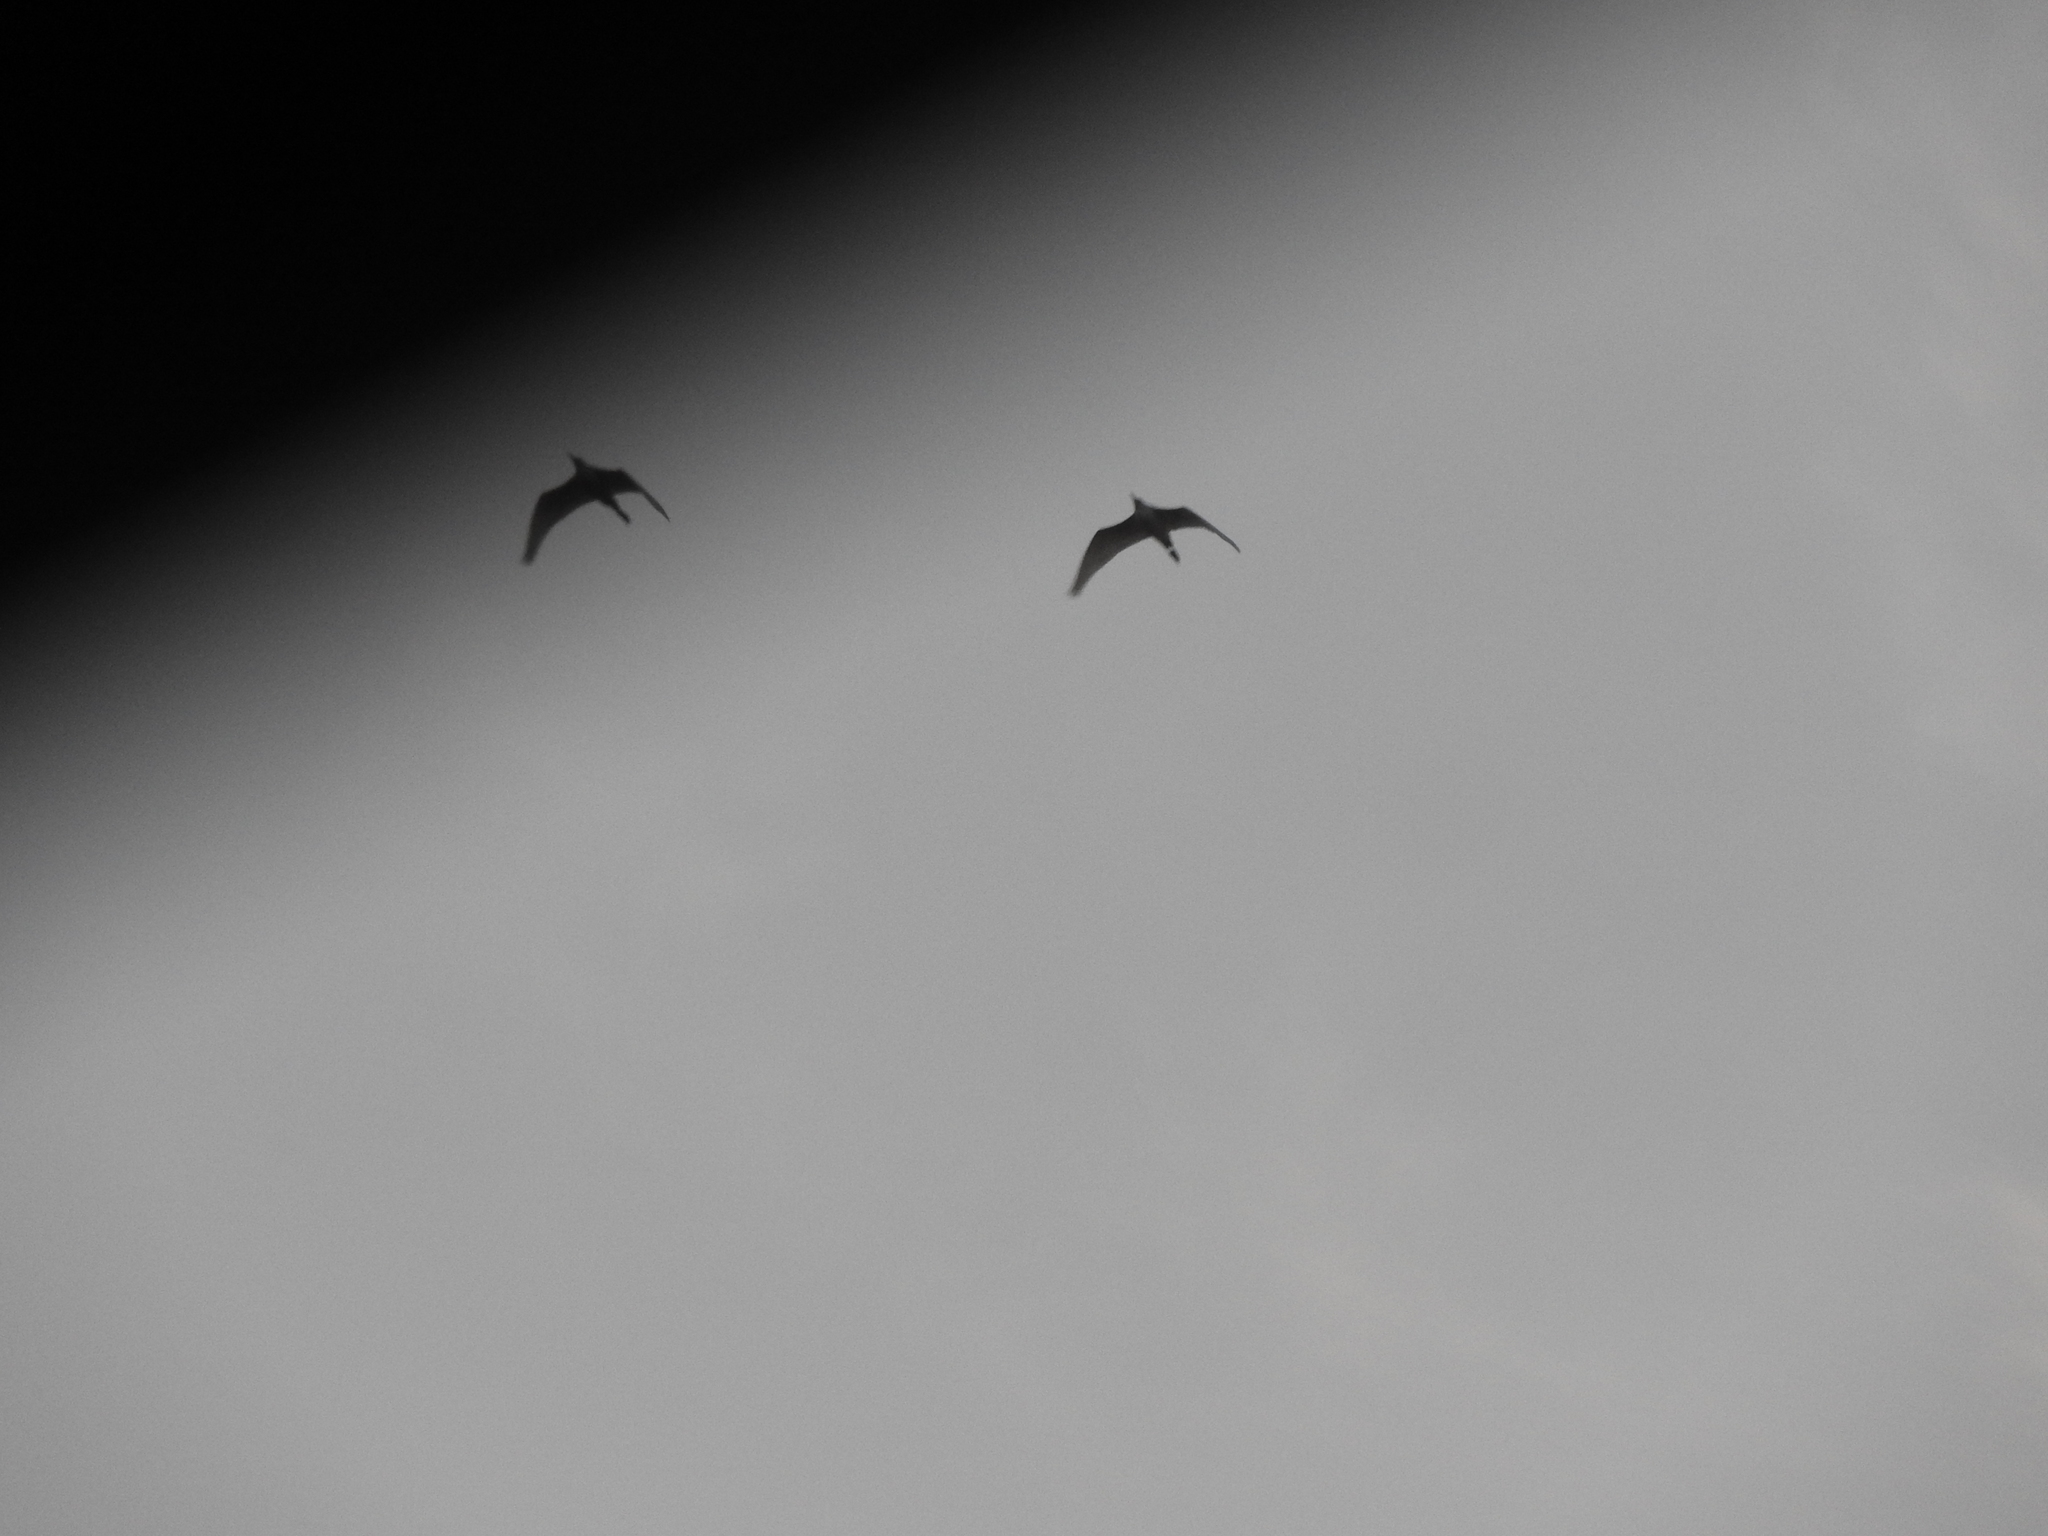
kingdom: Animalia
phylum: Chordata
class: Aves
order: Pelecaniformes
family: Ardeidae
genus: Bubulcus
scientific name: Bubulcus ibis
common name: Cattle egret
